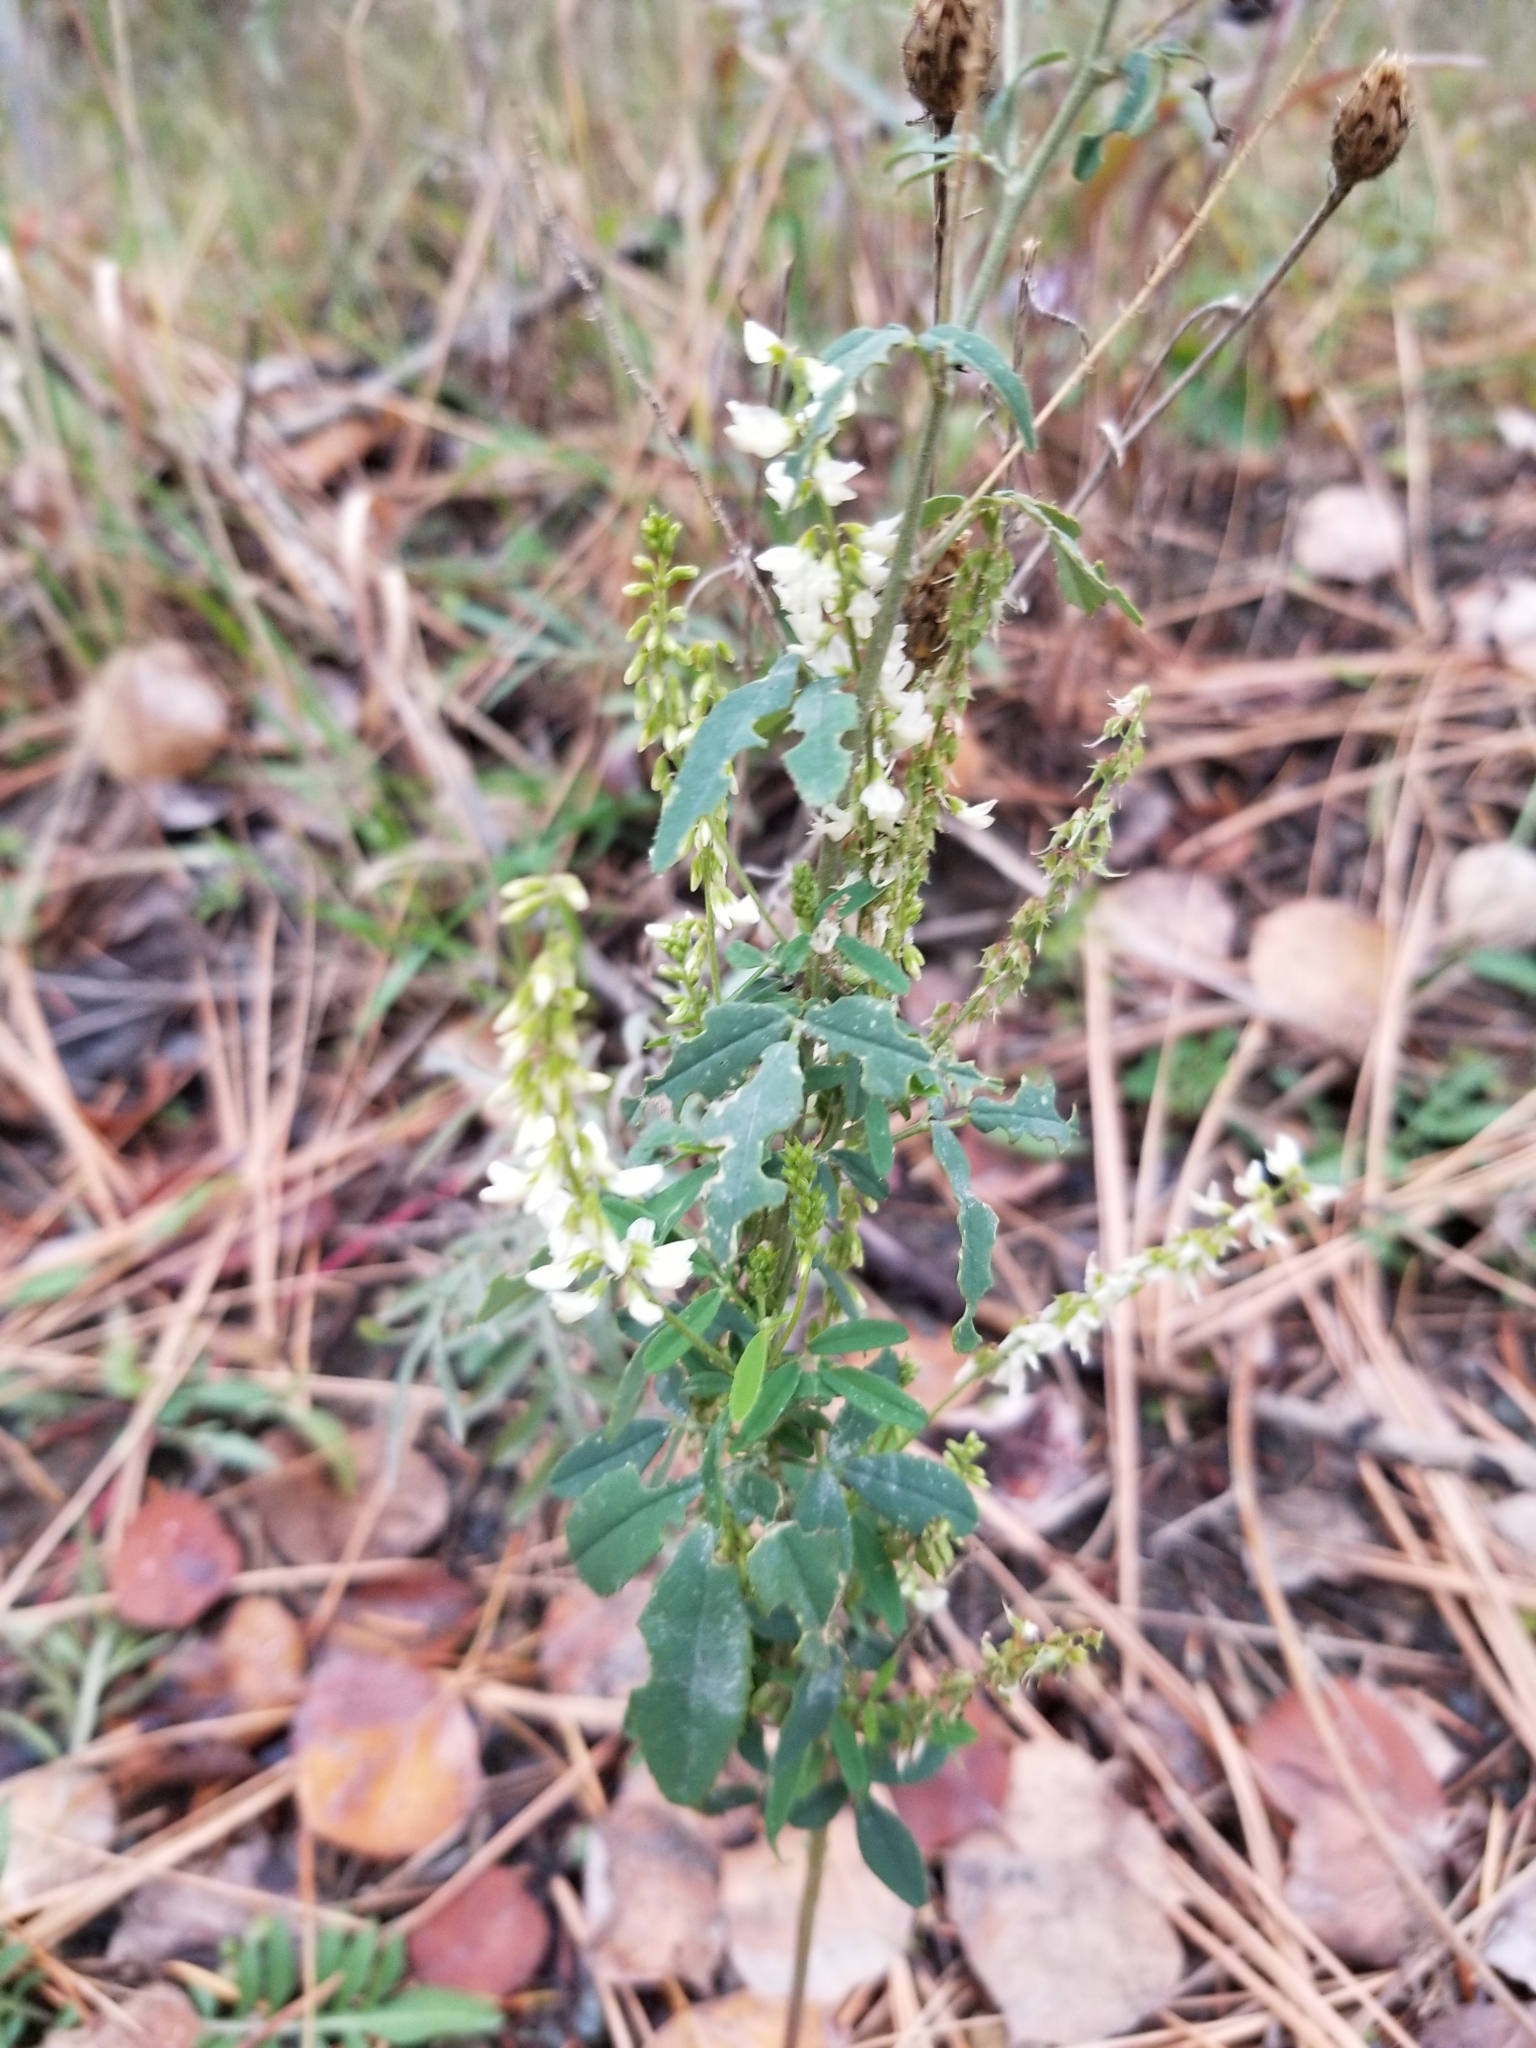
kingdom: Plantae
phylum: Tracheophyta
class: Magnoliopsida
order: Fabales
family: Fabaceae
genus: Melilotus
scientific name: Melilotus albus
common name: White melilot
